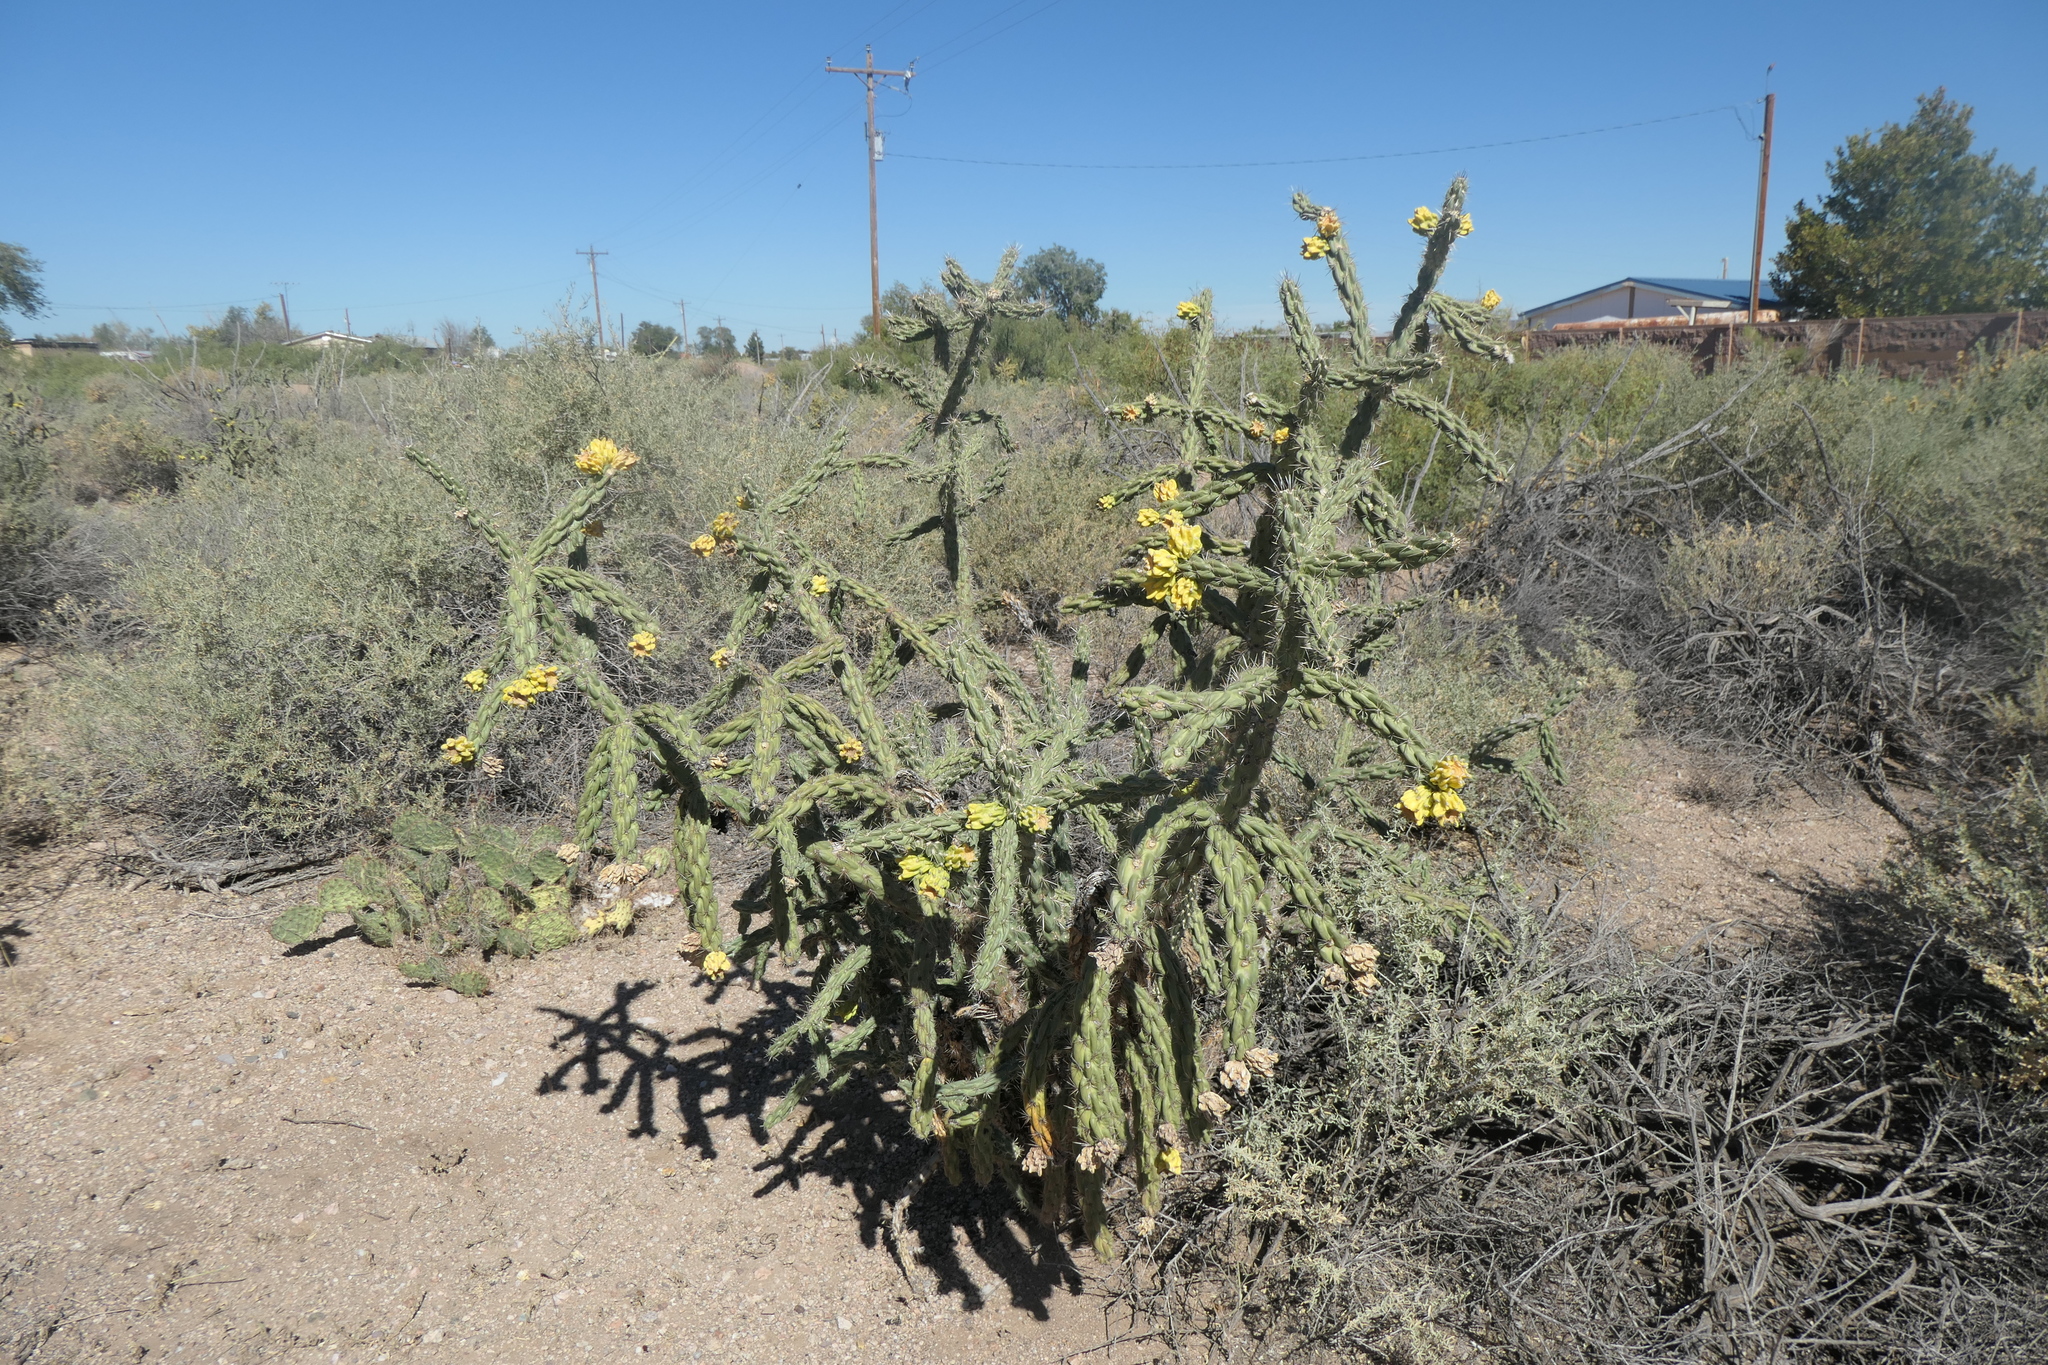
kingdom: Plantae
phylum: Tracheophyta
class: Magnoliopsida
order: Caryophyllales
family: Cactaceae
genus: Cylindropuntia
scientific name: Cylindropuntia imbricata
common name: Candelabrum cactus
